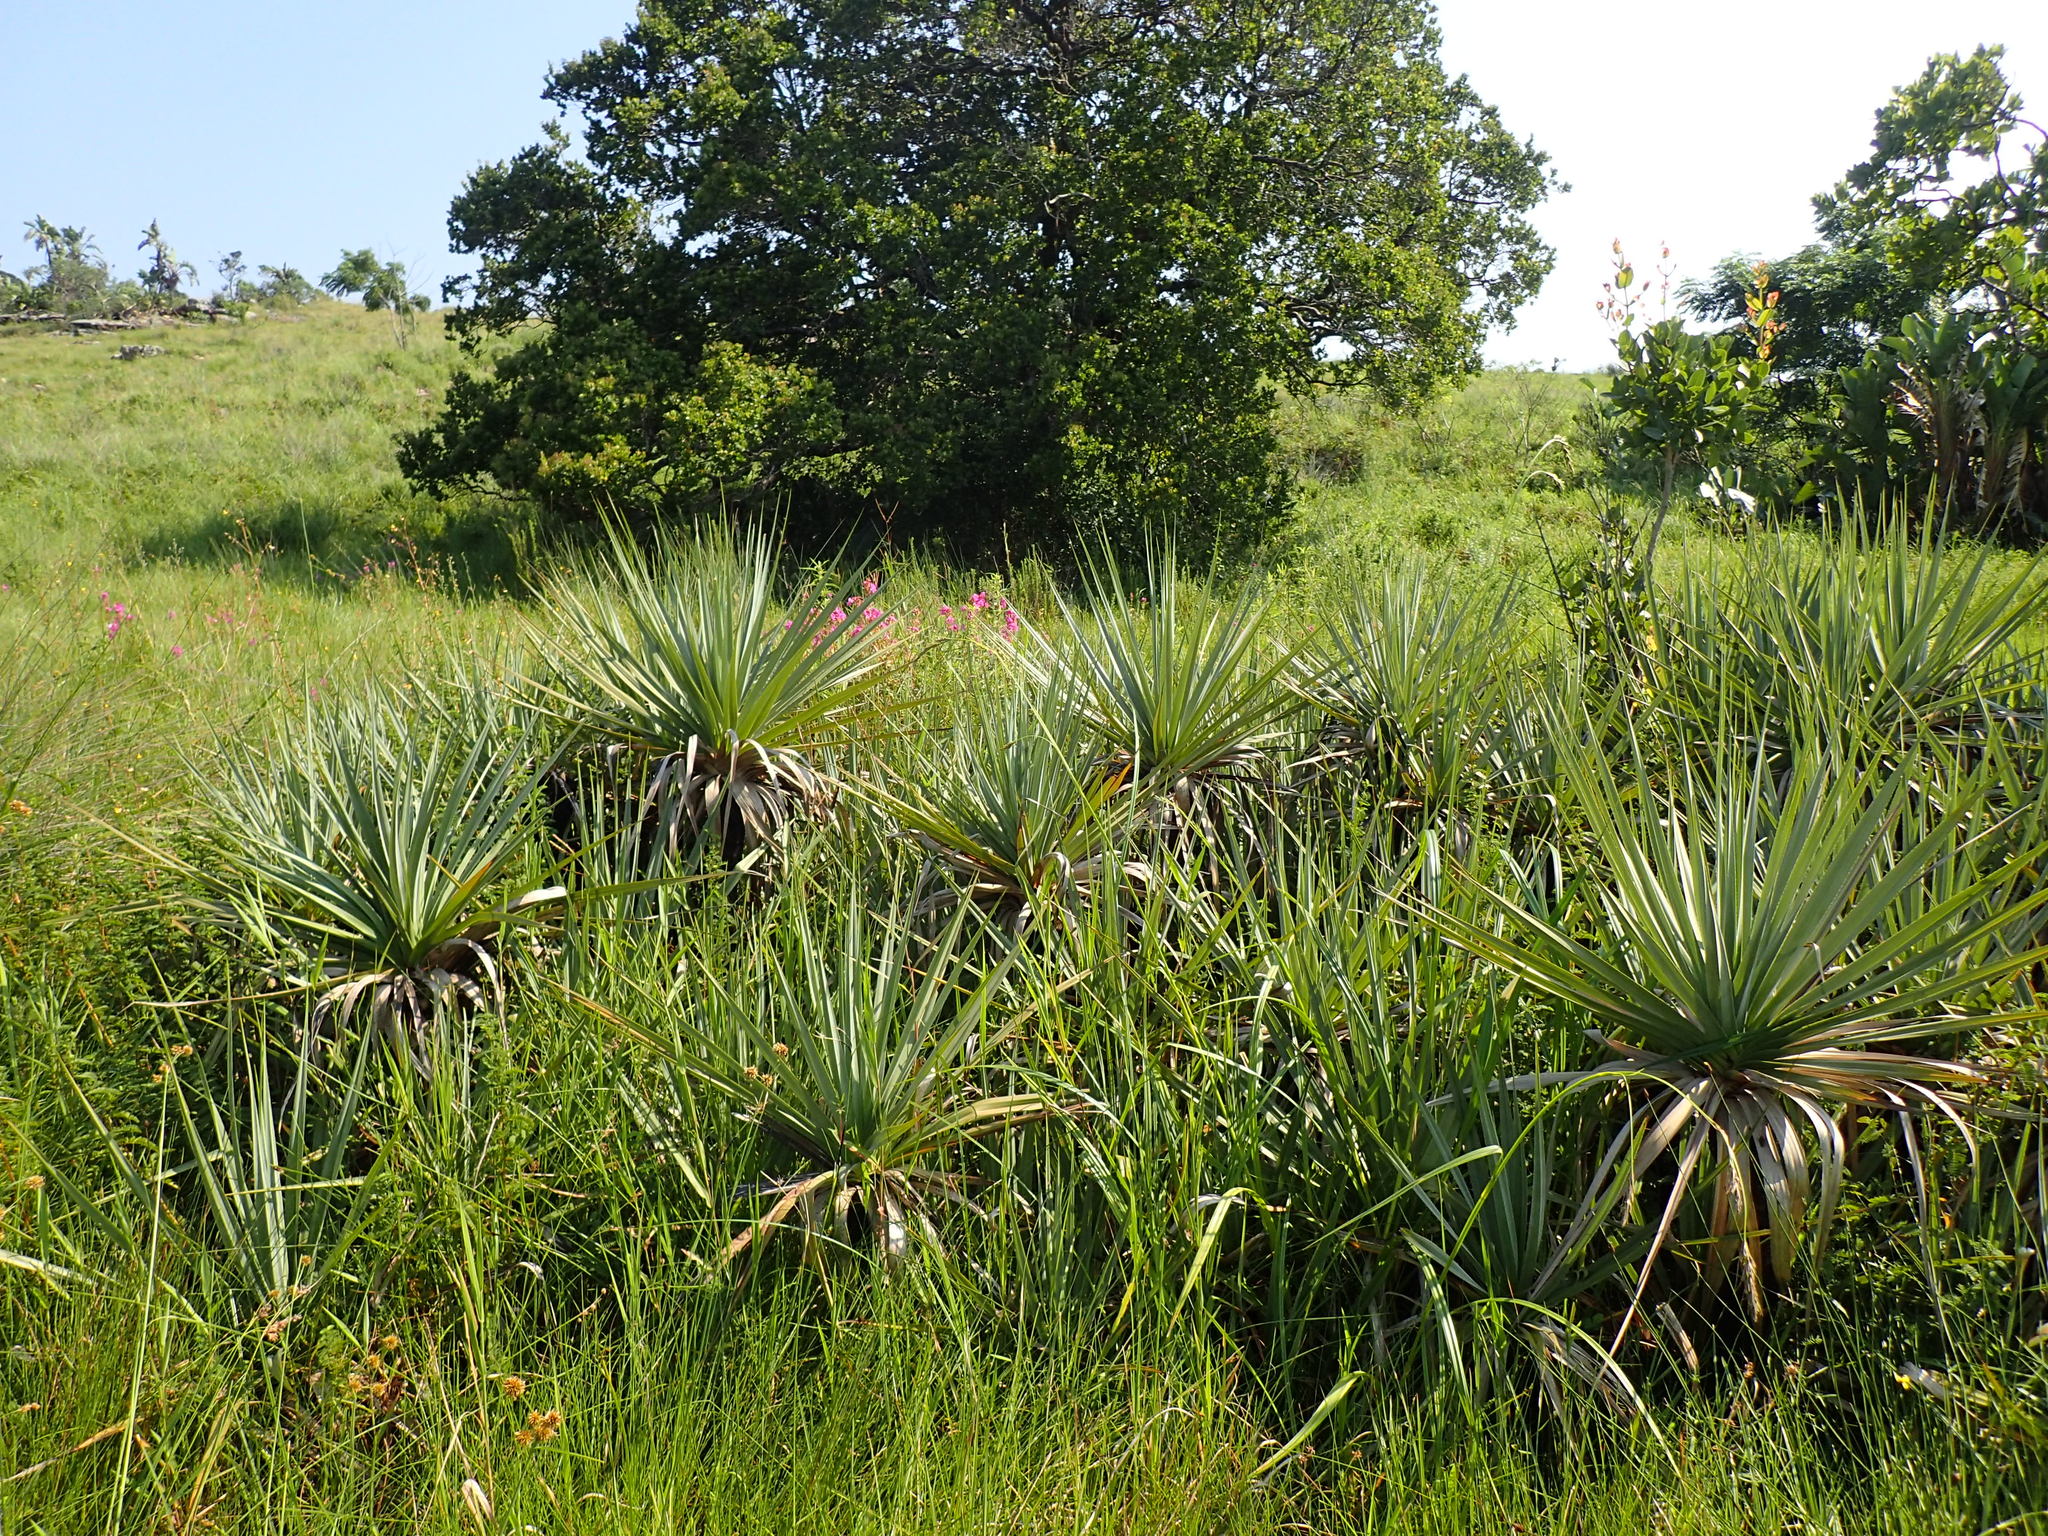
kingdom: Plantae
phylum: Tracheophyta
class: Liliopsida
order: Poales
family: Thurniaceae
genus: Prionium
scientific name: Prionium serratum
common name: Palmiet
